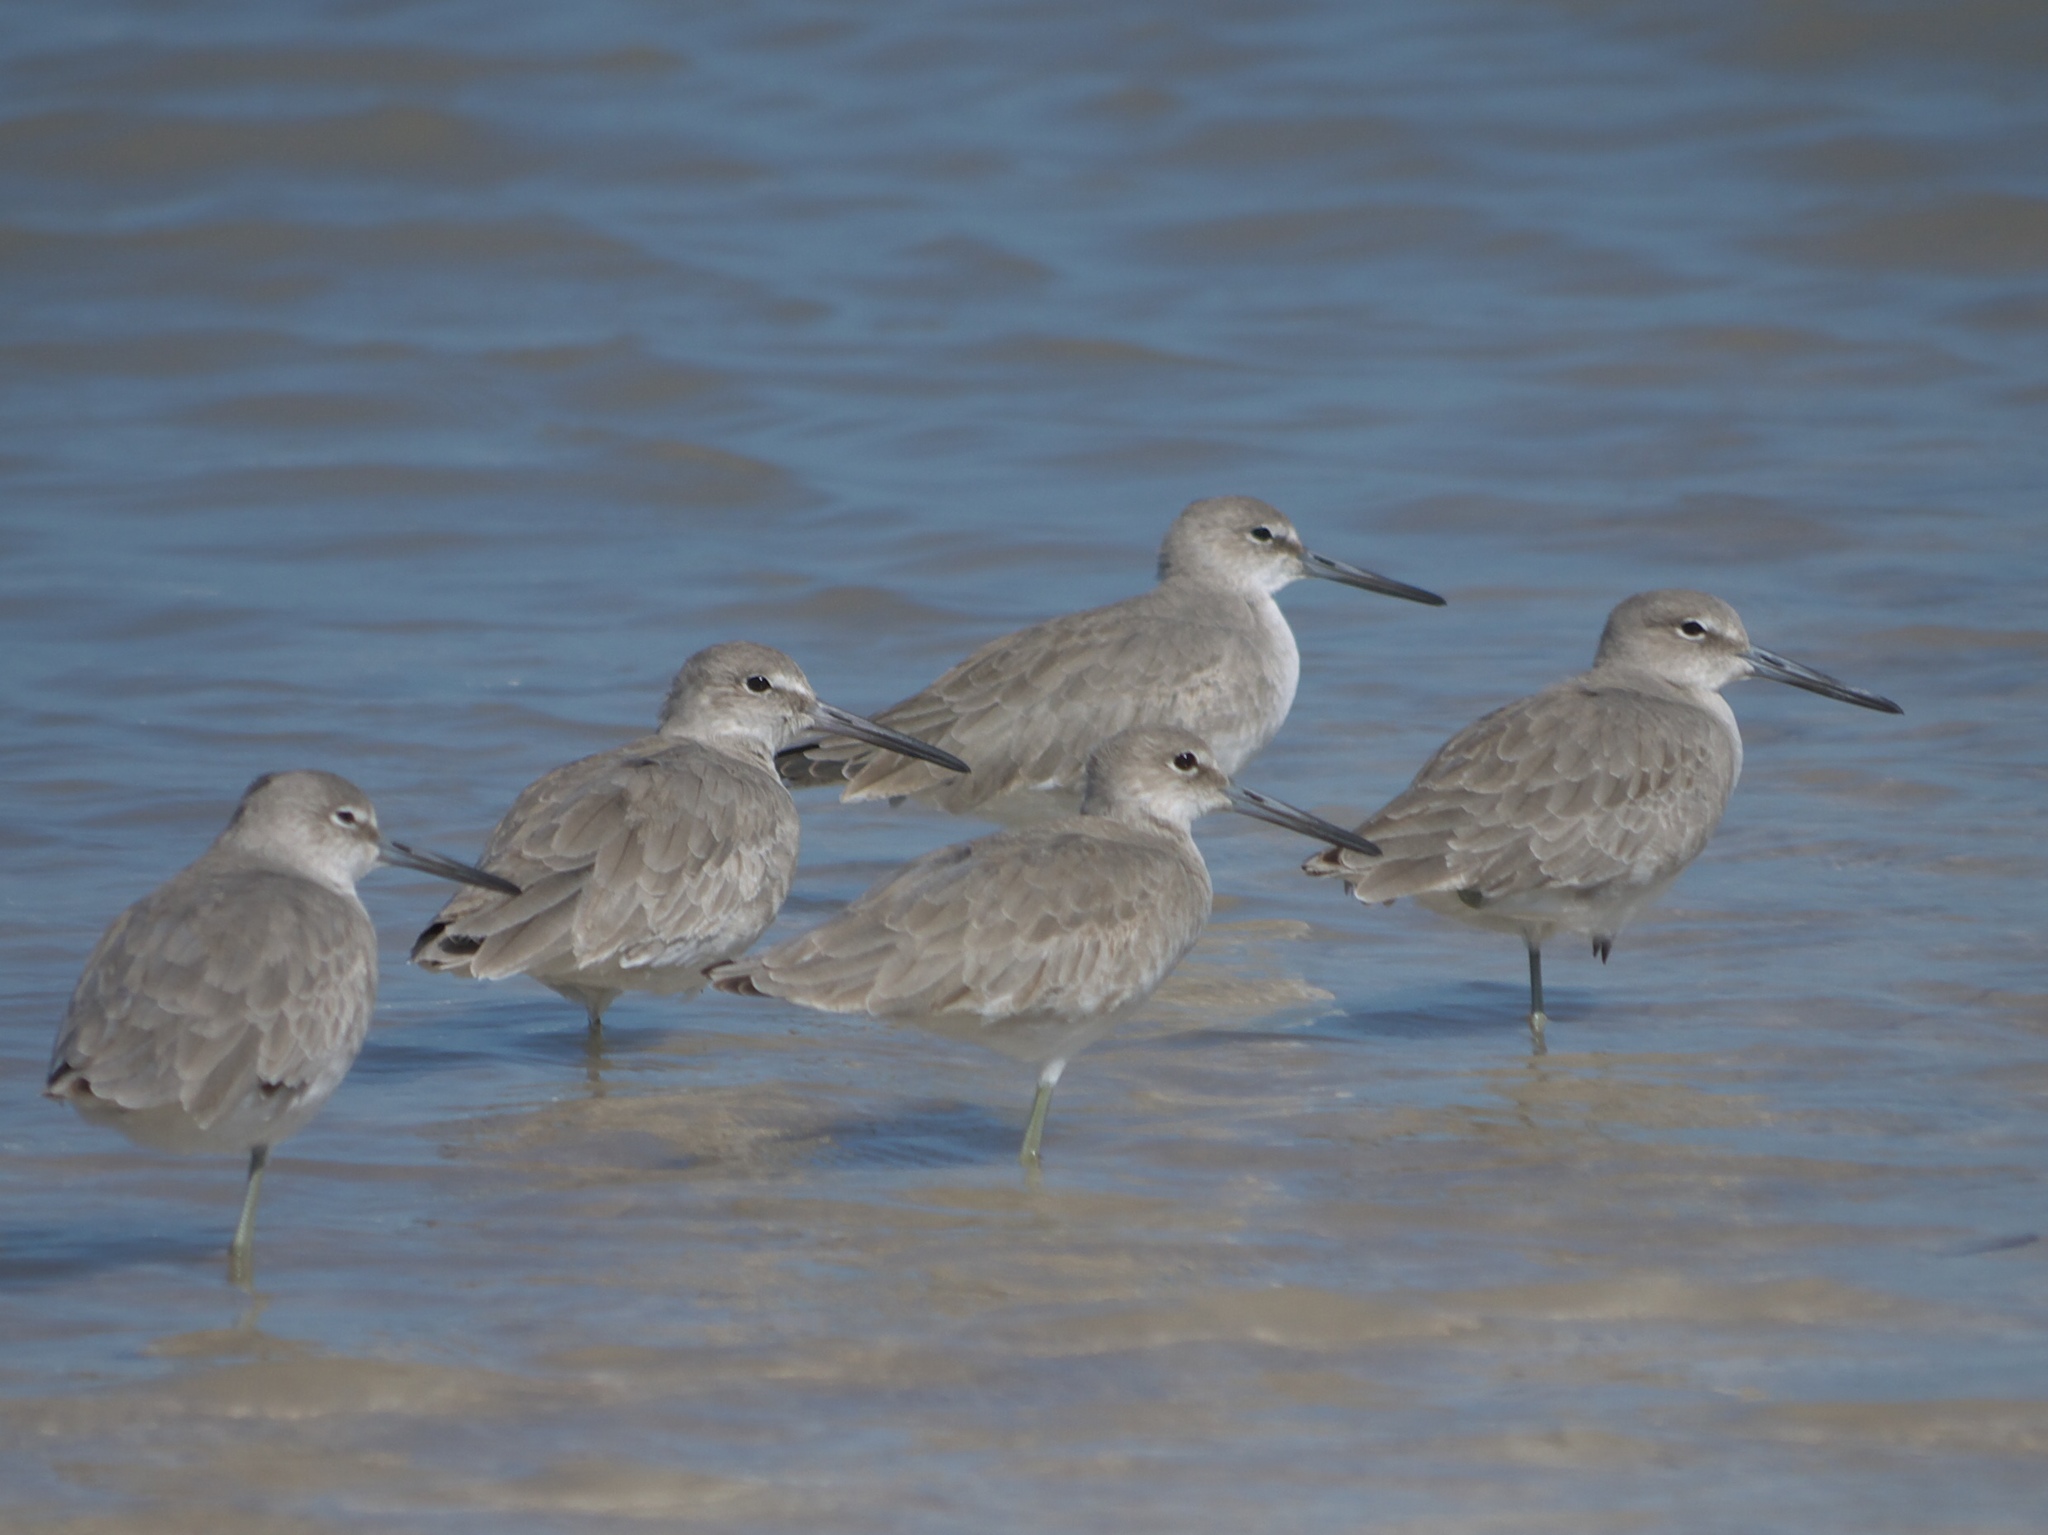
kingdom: Animalia
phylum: Chordata
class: Aves
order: Charadriiformes
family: Scolopacidae
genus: Tringa
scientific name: Tringa semipalmata
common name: Willet
